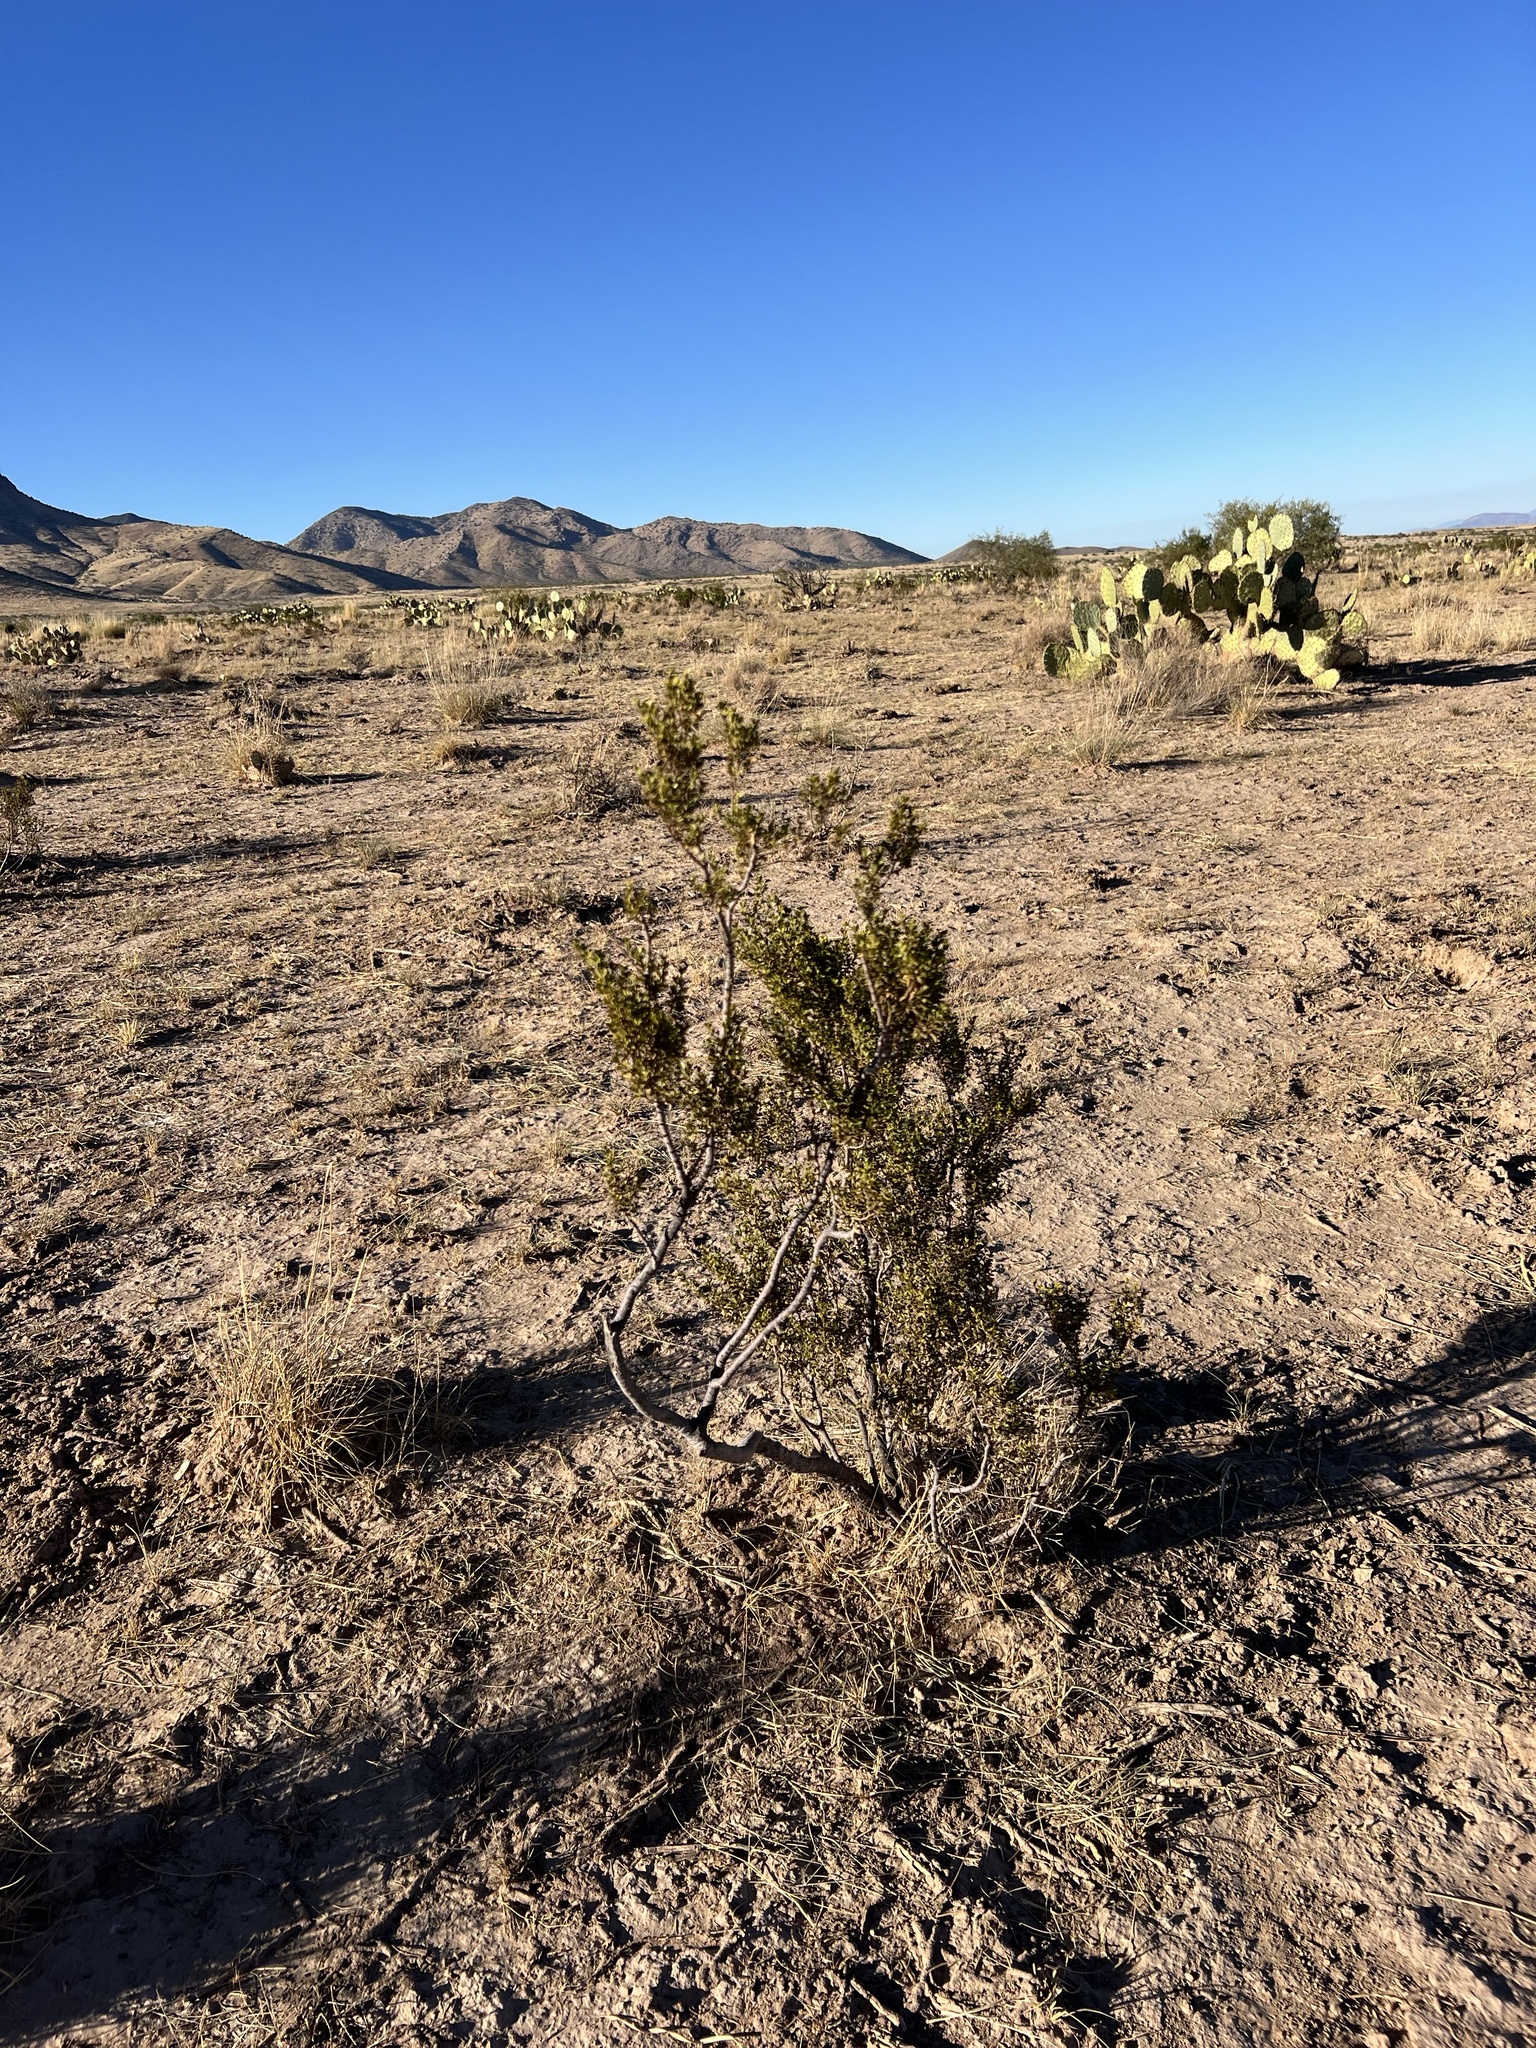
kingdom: Plantae
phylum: Tracheophyta
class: Magnoliopsida
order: Zygophyllales
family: Zygophyllaceae
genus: Larrea
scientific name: Larrea tridentata
